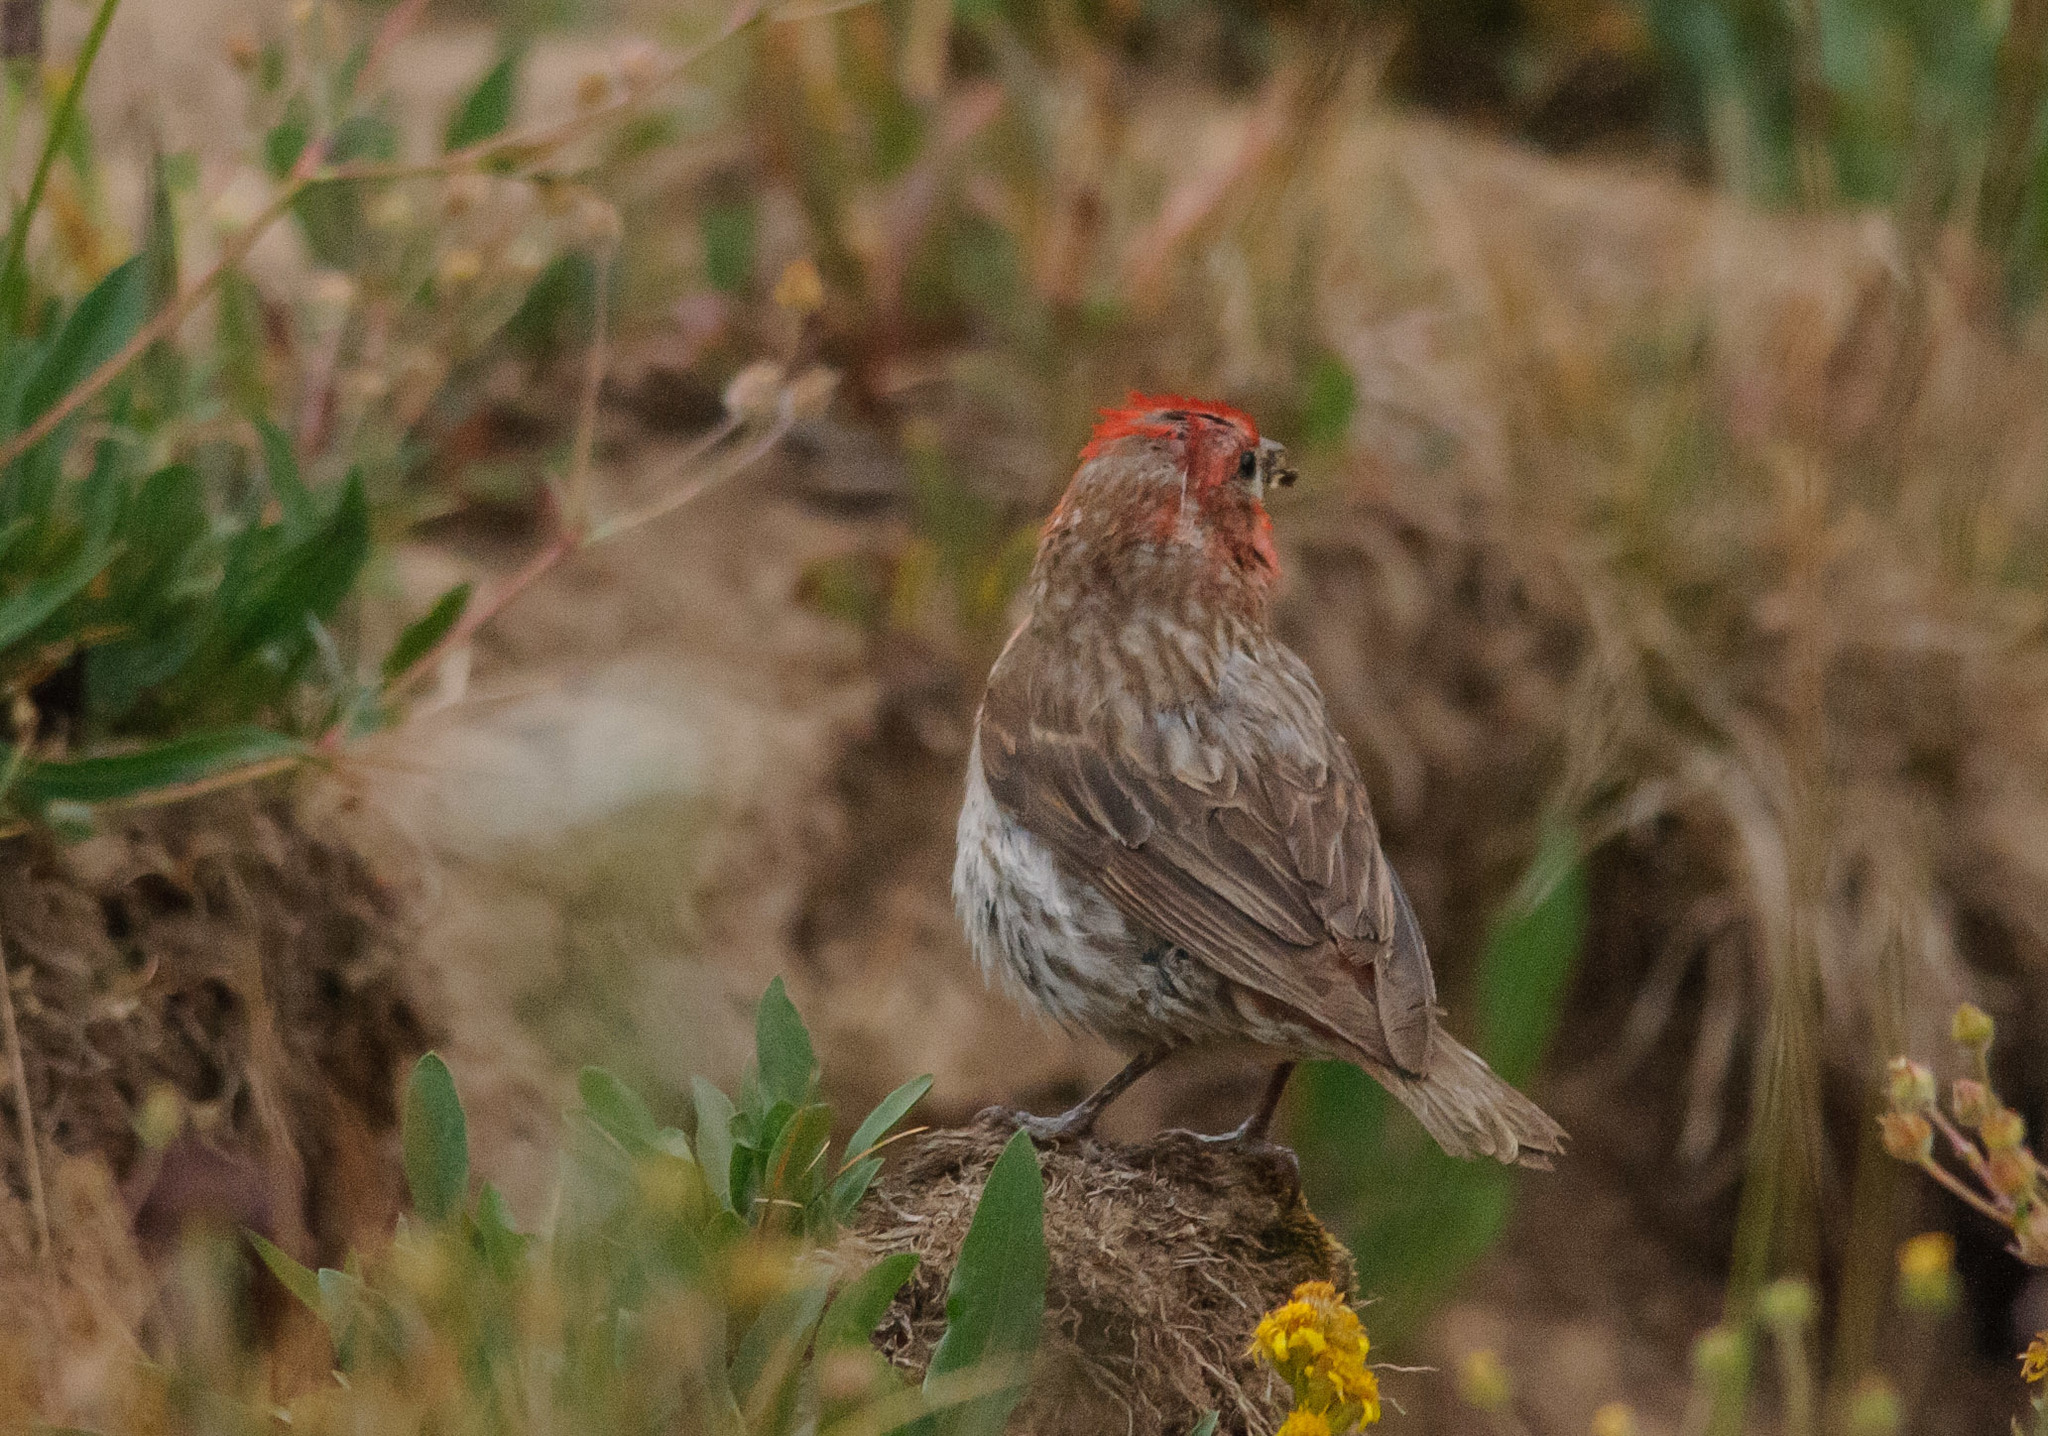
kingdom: Animalia
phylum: Chordata
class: Aves
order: Passeriformes
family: Fringillidae
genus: Haemorhous
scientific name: Haemorhous mexicanus
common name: House finch
